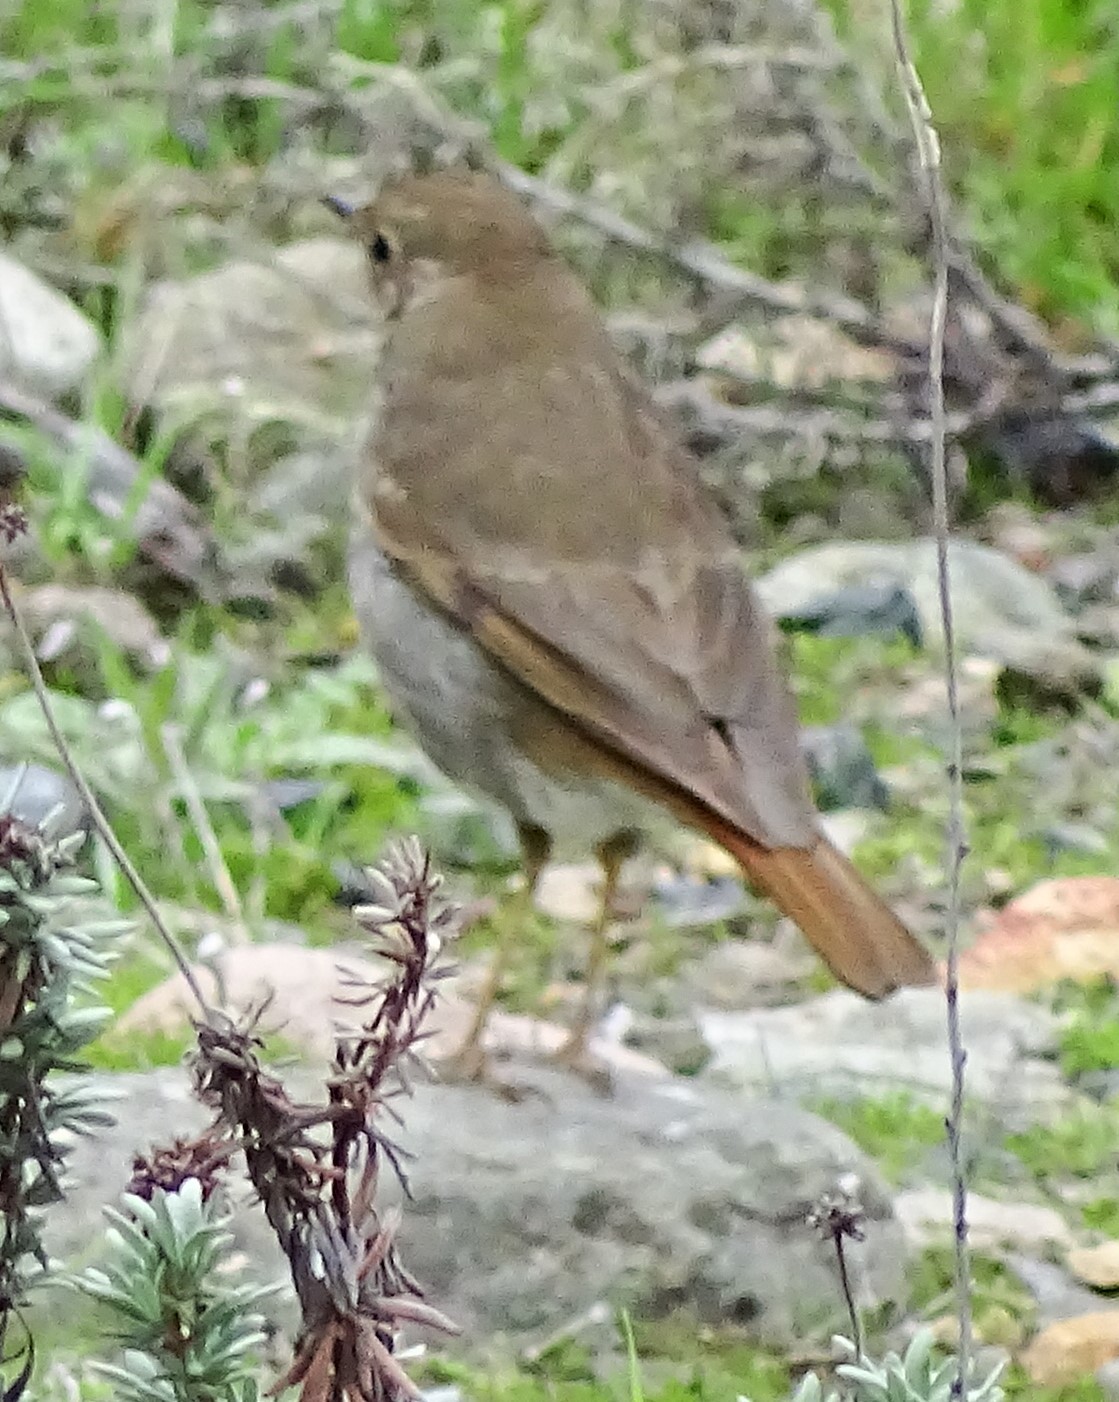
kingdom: Animalia
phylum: Chordata
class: Aves
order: Passeriformes
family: Turdidae
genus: Catharus
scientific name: Catharus guttatus
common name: Hermit thrush
